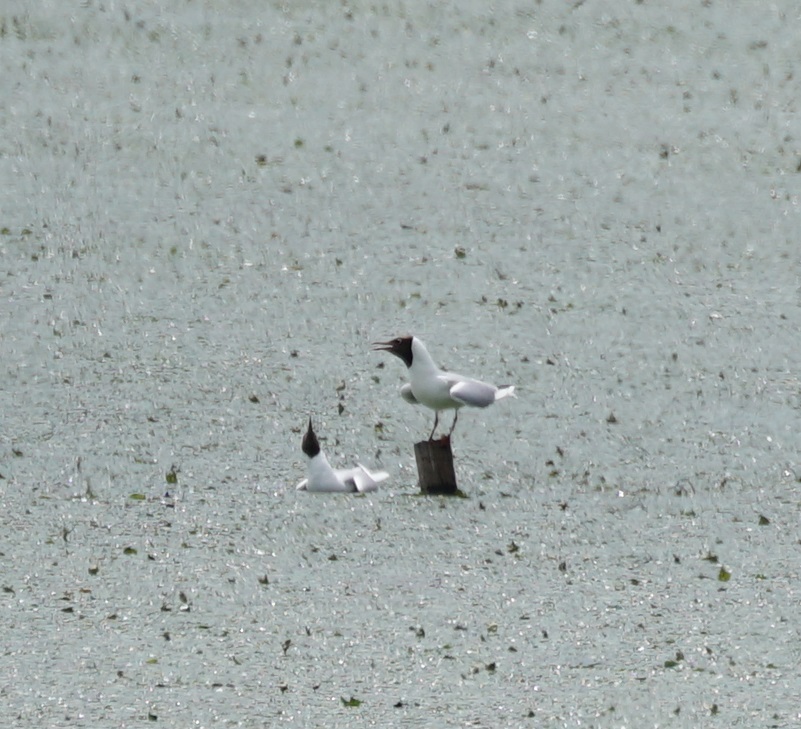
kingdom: Animalia
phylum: Chordata
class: Aves
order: Charadriiformes
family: Laridae
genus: Chroicocephalus
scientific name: Chroicocephalus ridibundus
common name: Black-headed gull
